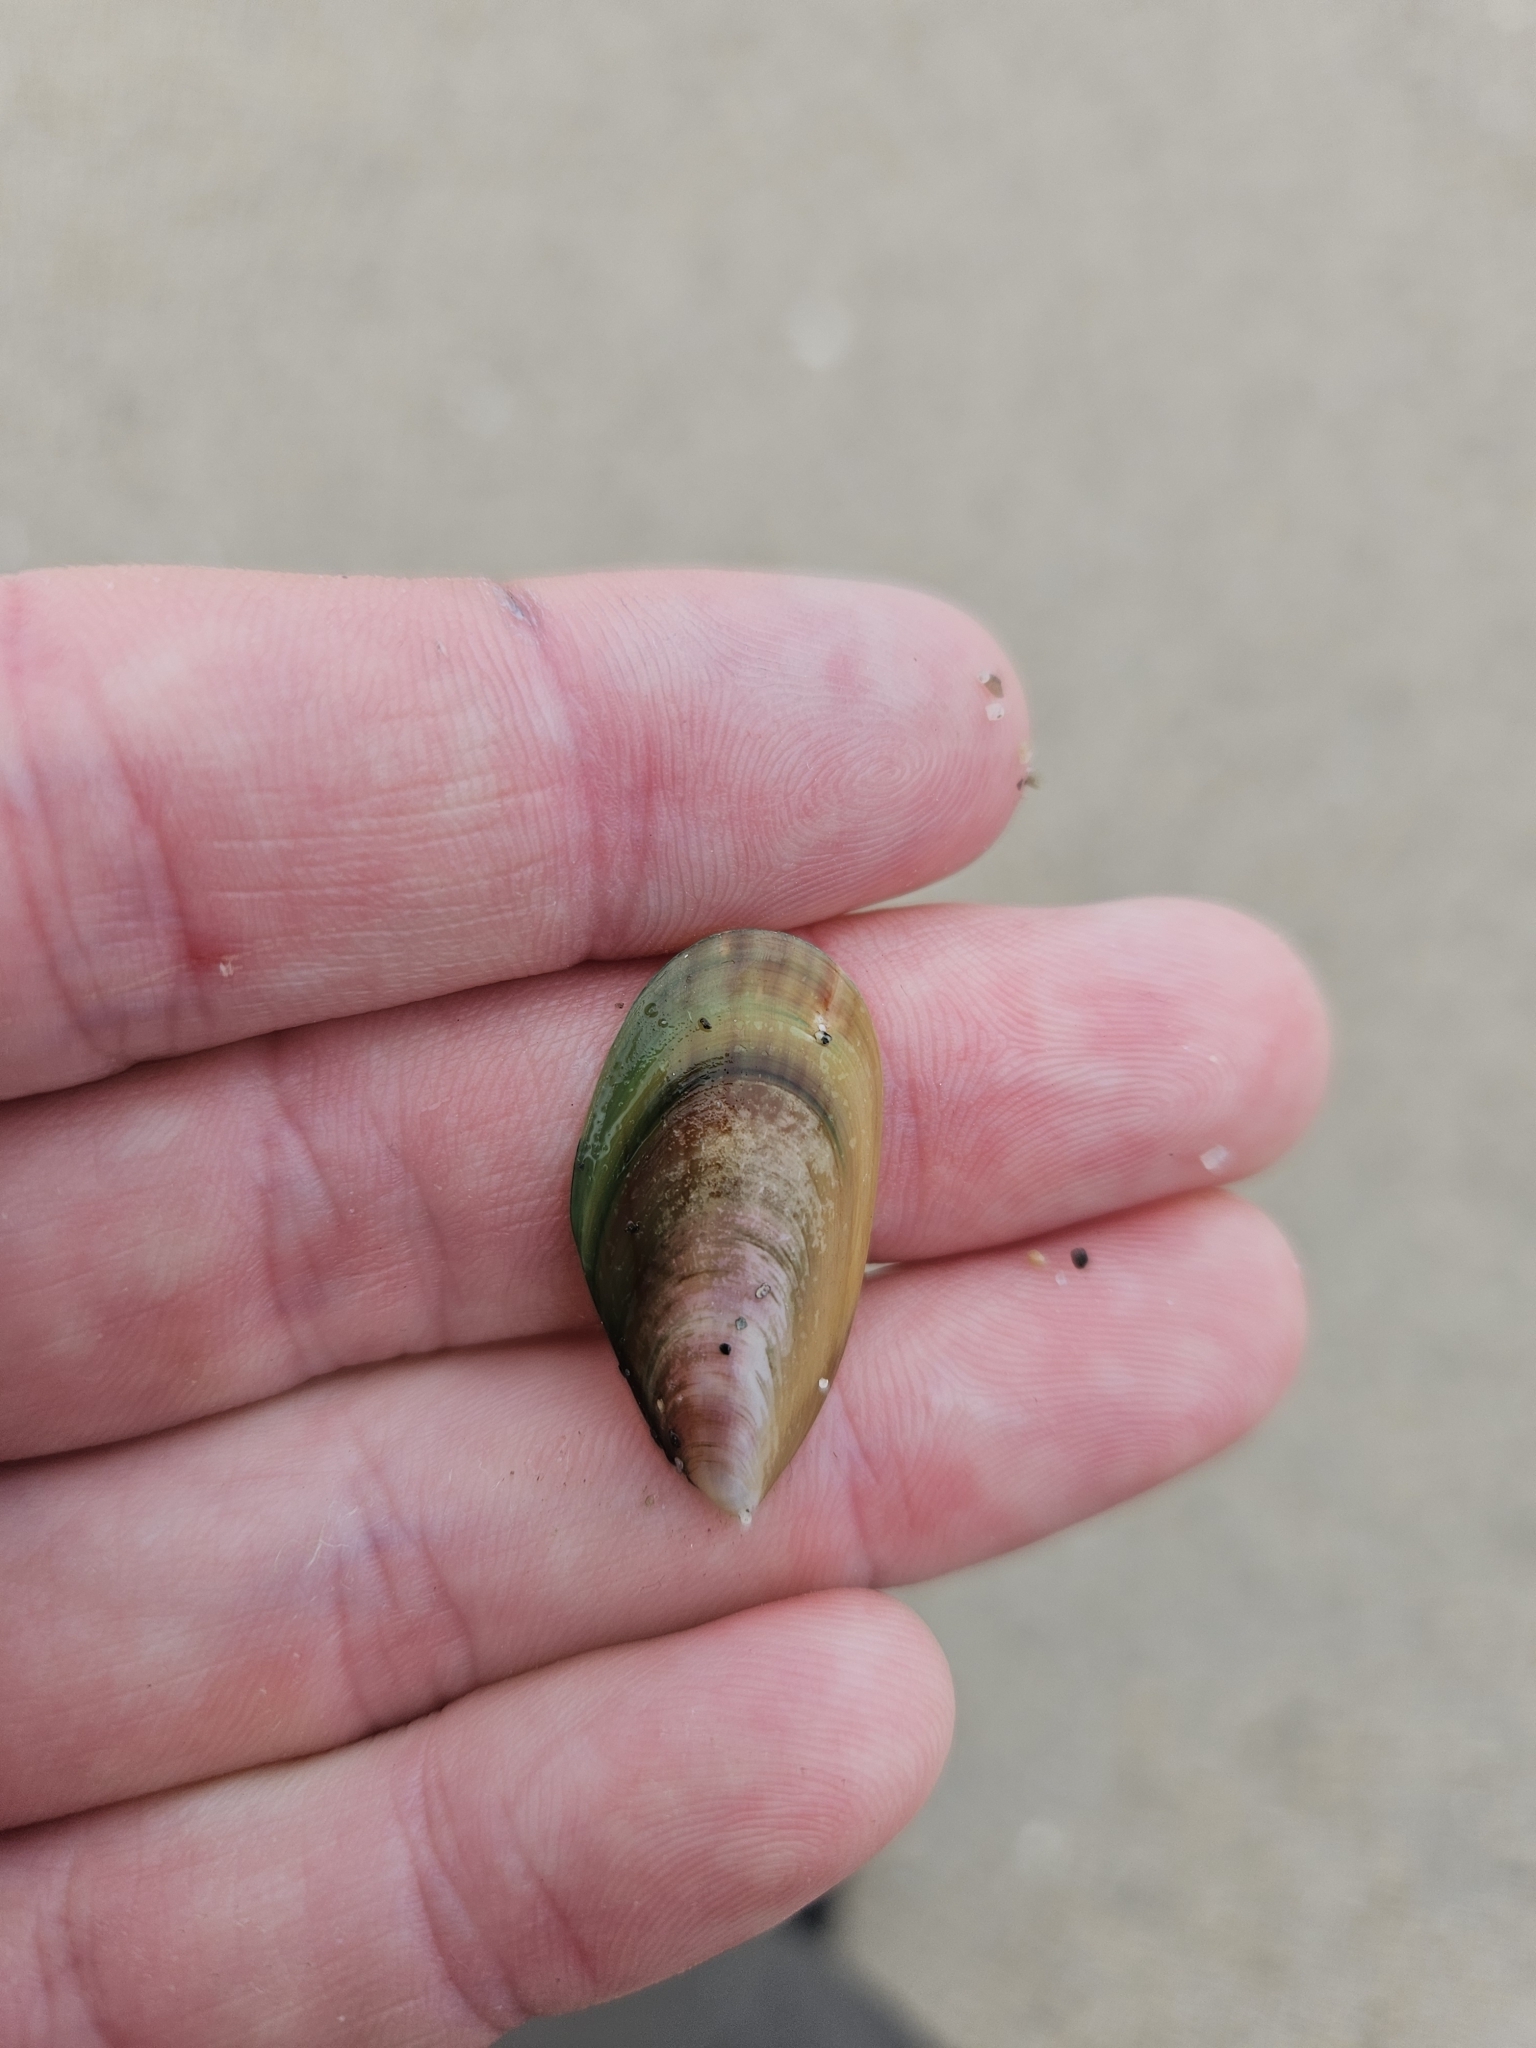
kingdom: Animalia
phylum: Mollusca
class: Bivalvia
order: Mytilida
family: Mytilidae
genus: Perna
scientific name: Perna canaliculus
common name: New zealand greenshelltm
